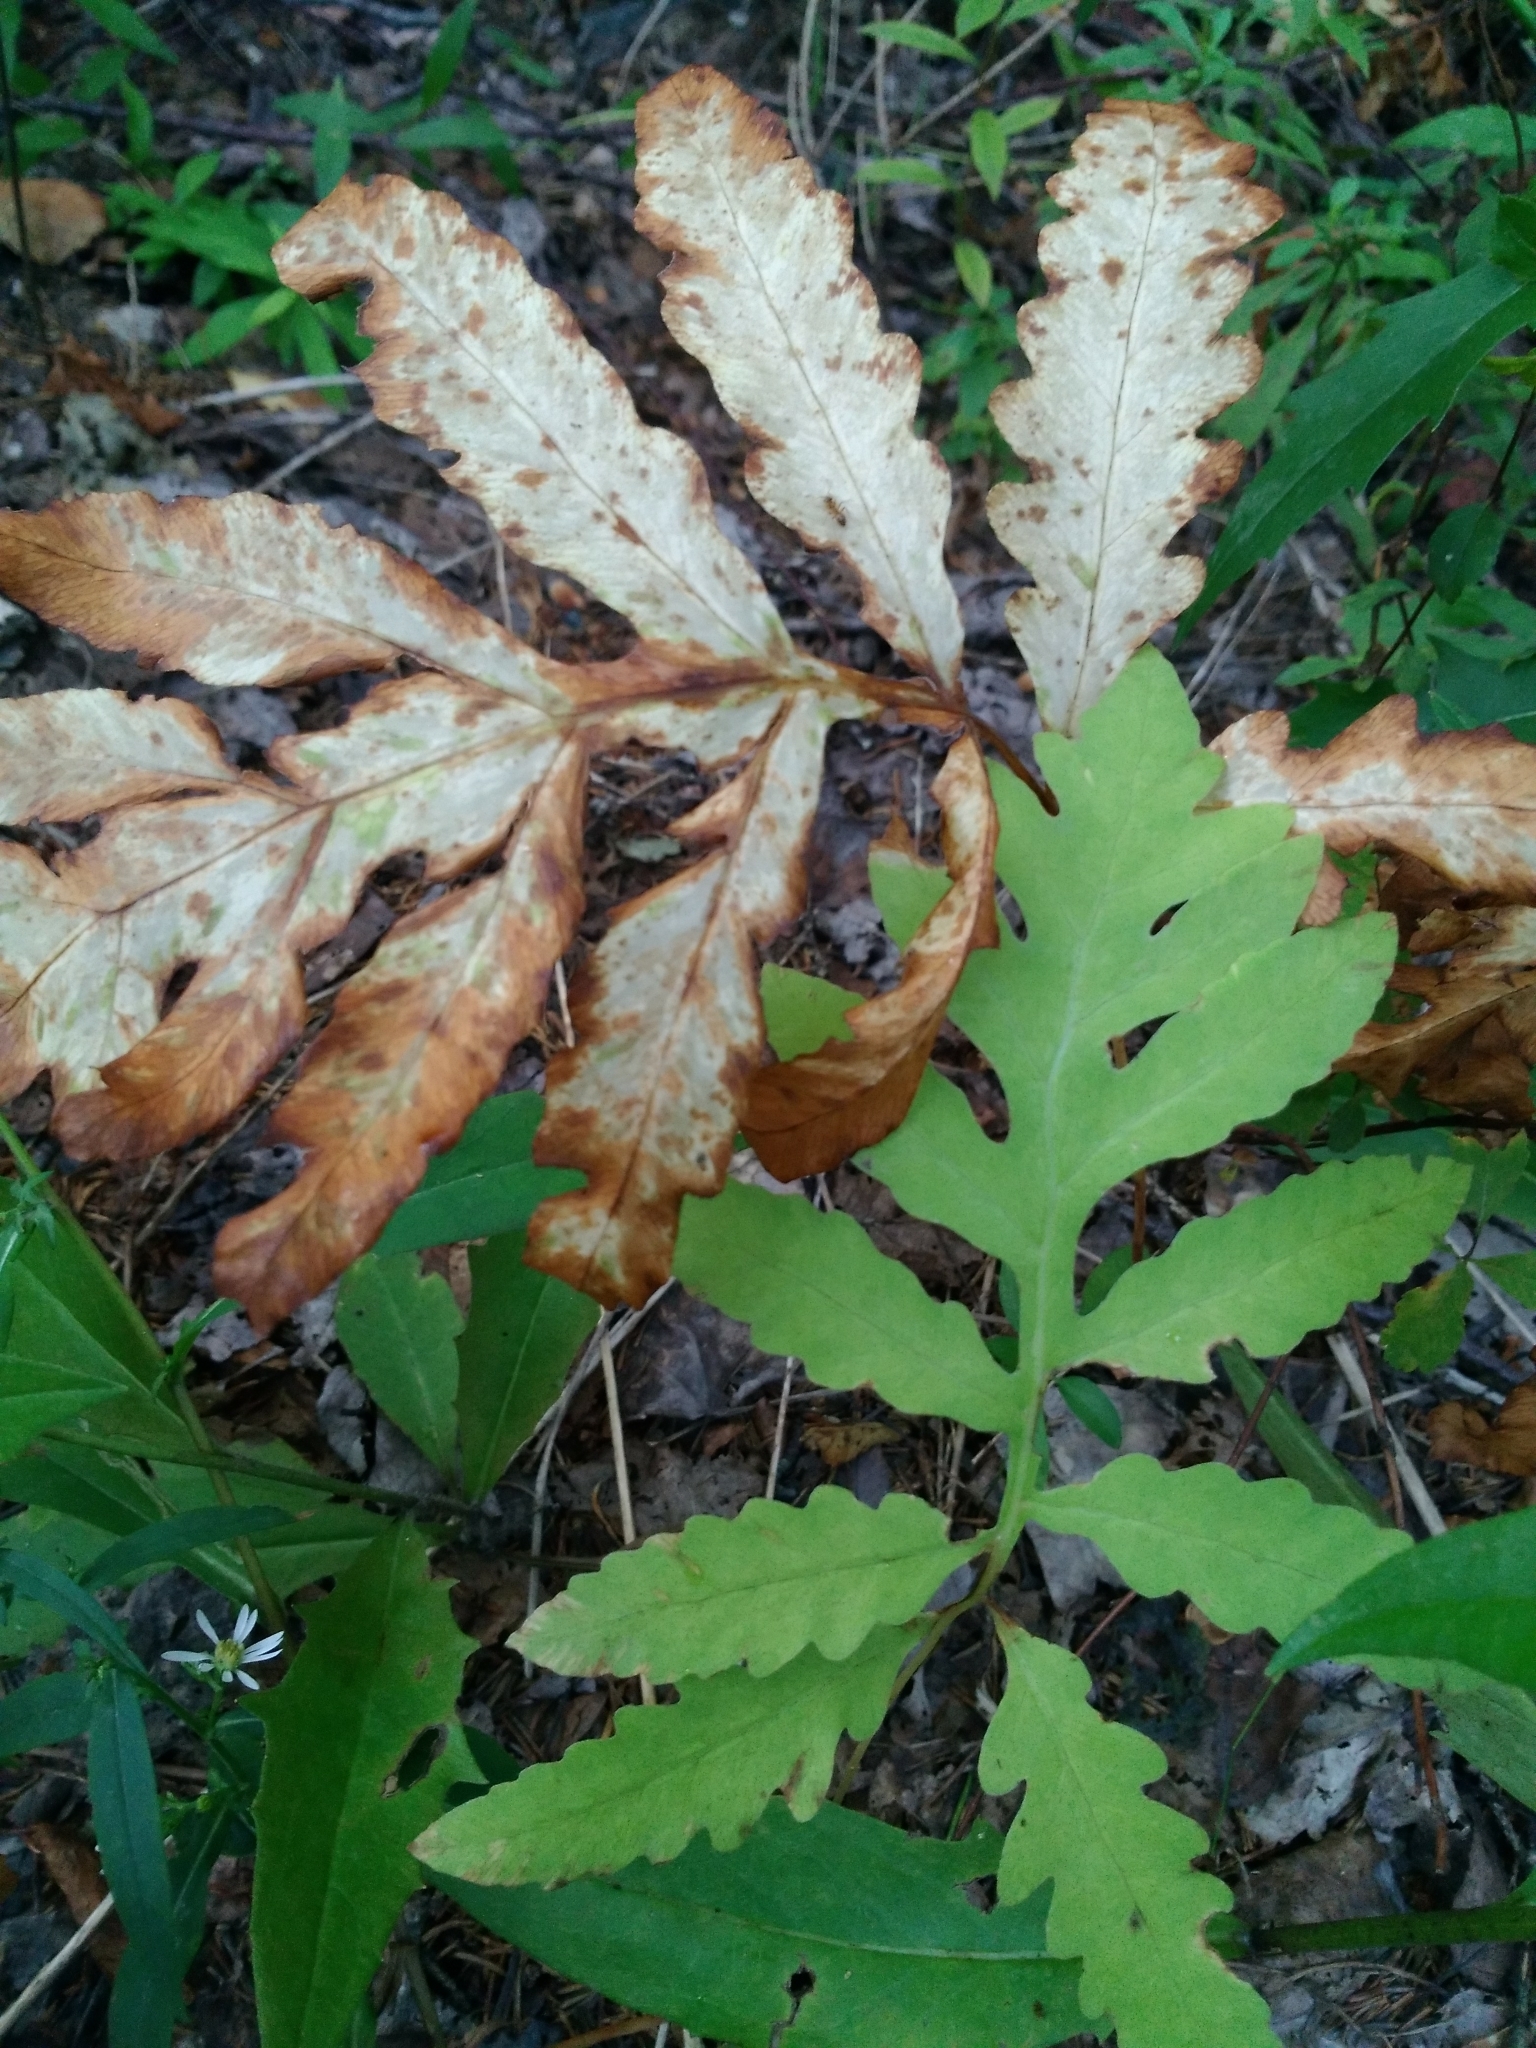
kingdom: Plantae
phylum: Tracheophyta
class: Polypodiopsida
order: Polypodiales
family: Onocleaceae
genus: Onoclea
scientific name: Onoclea sensibilis
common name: Sensitive fern
